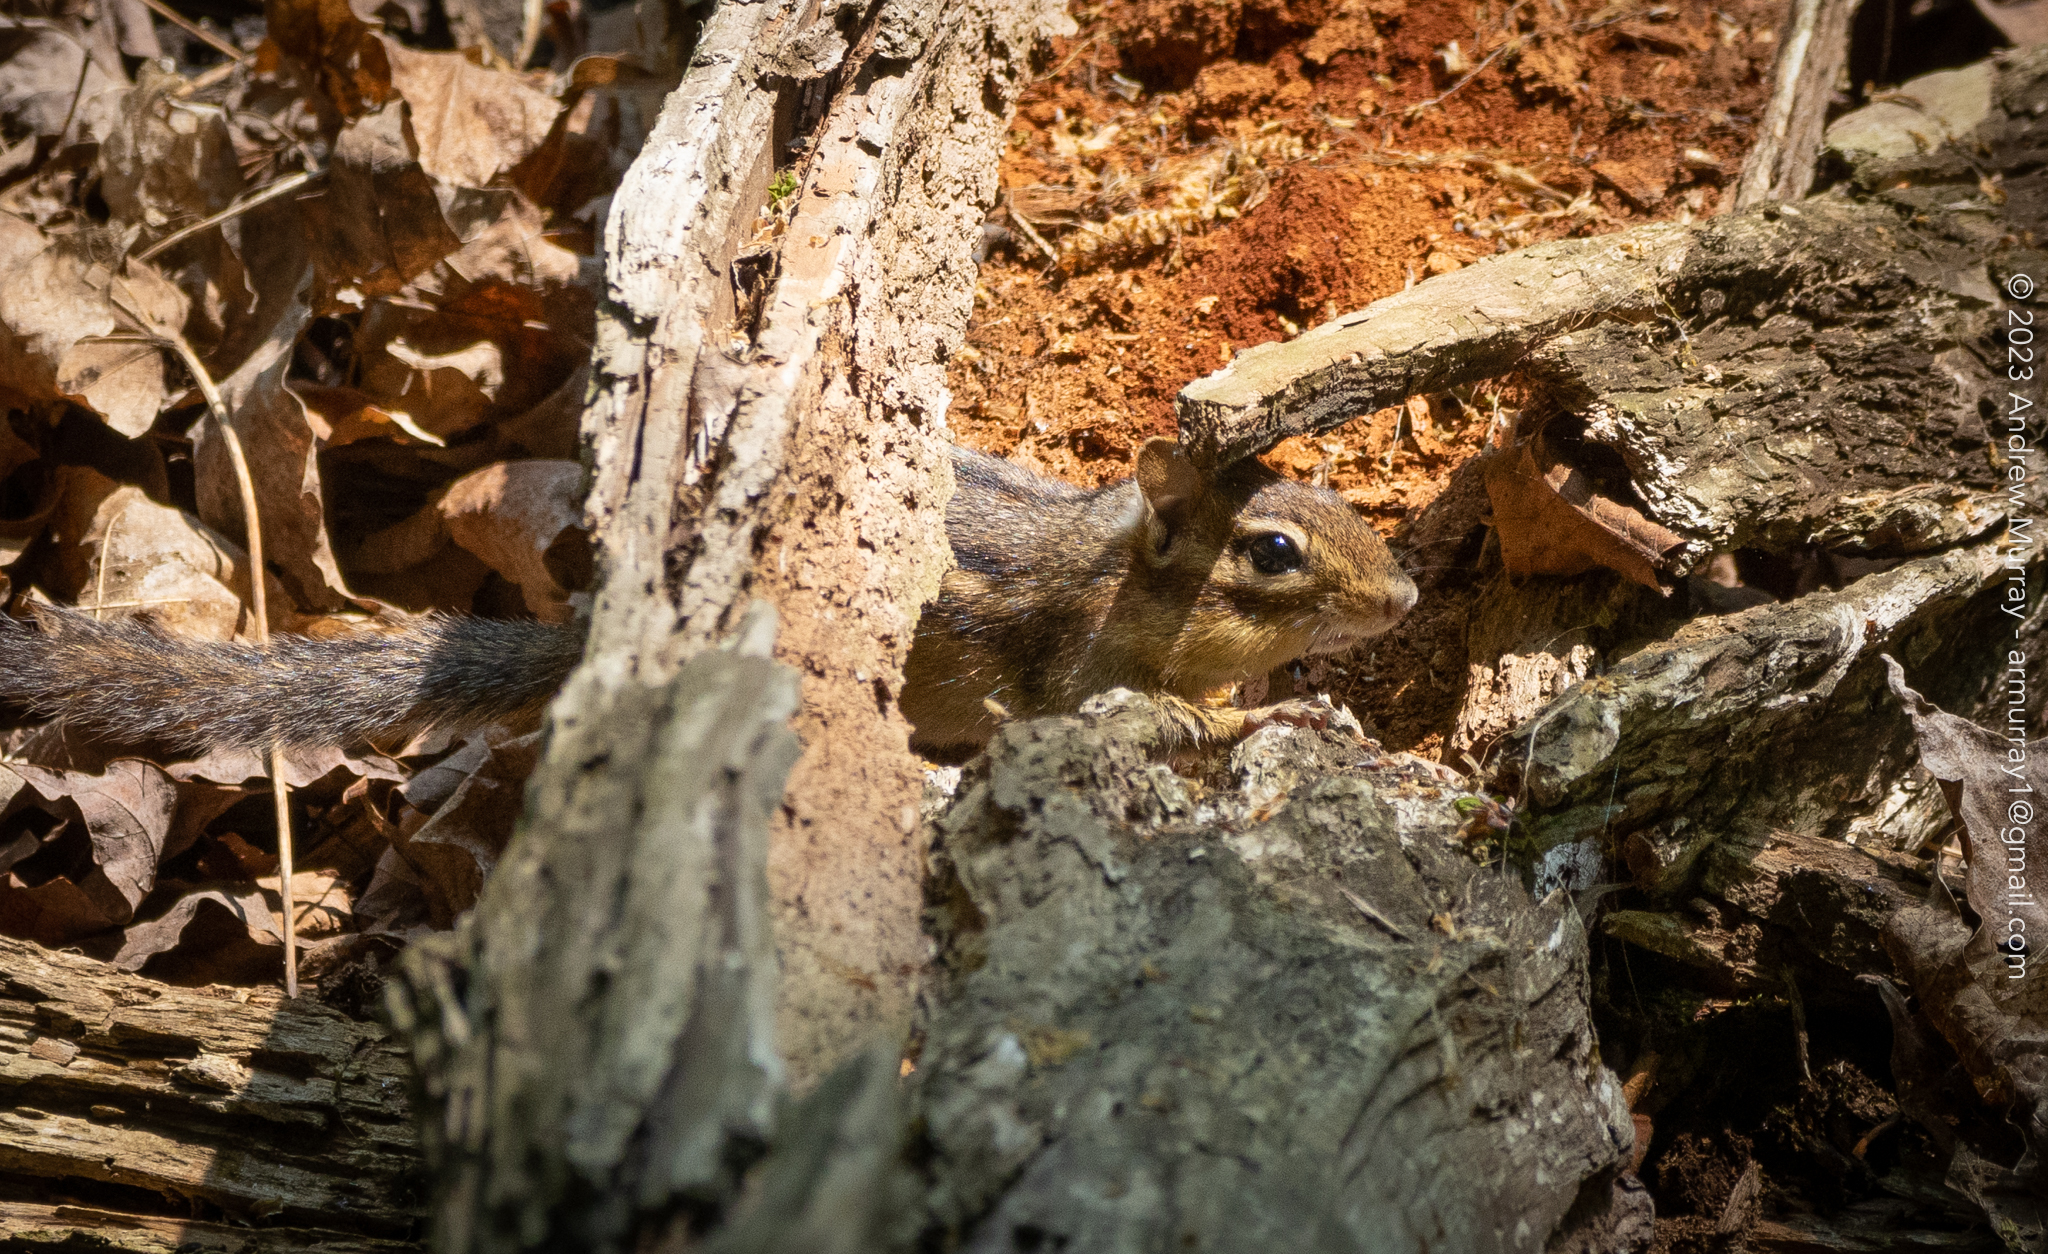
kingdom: Animalia
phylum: Chordata
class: Mammalia
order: Rodentia
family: Sciuridae
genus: Tamias
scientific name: Tamias striatus
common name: Eastern chipmunk
